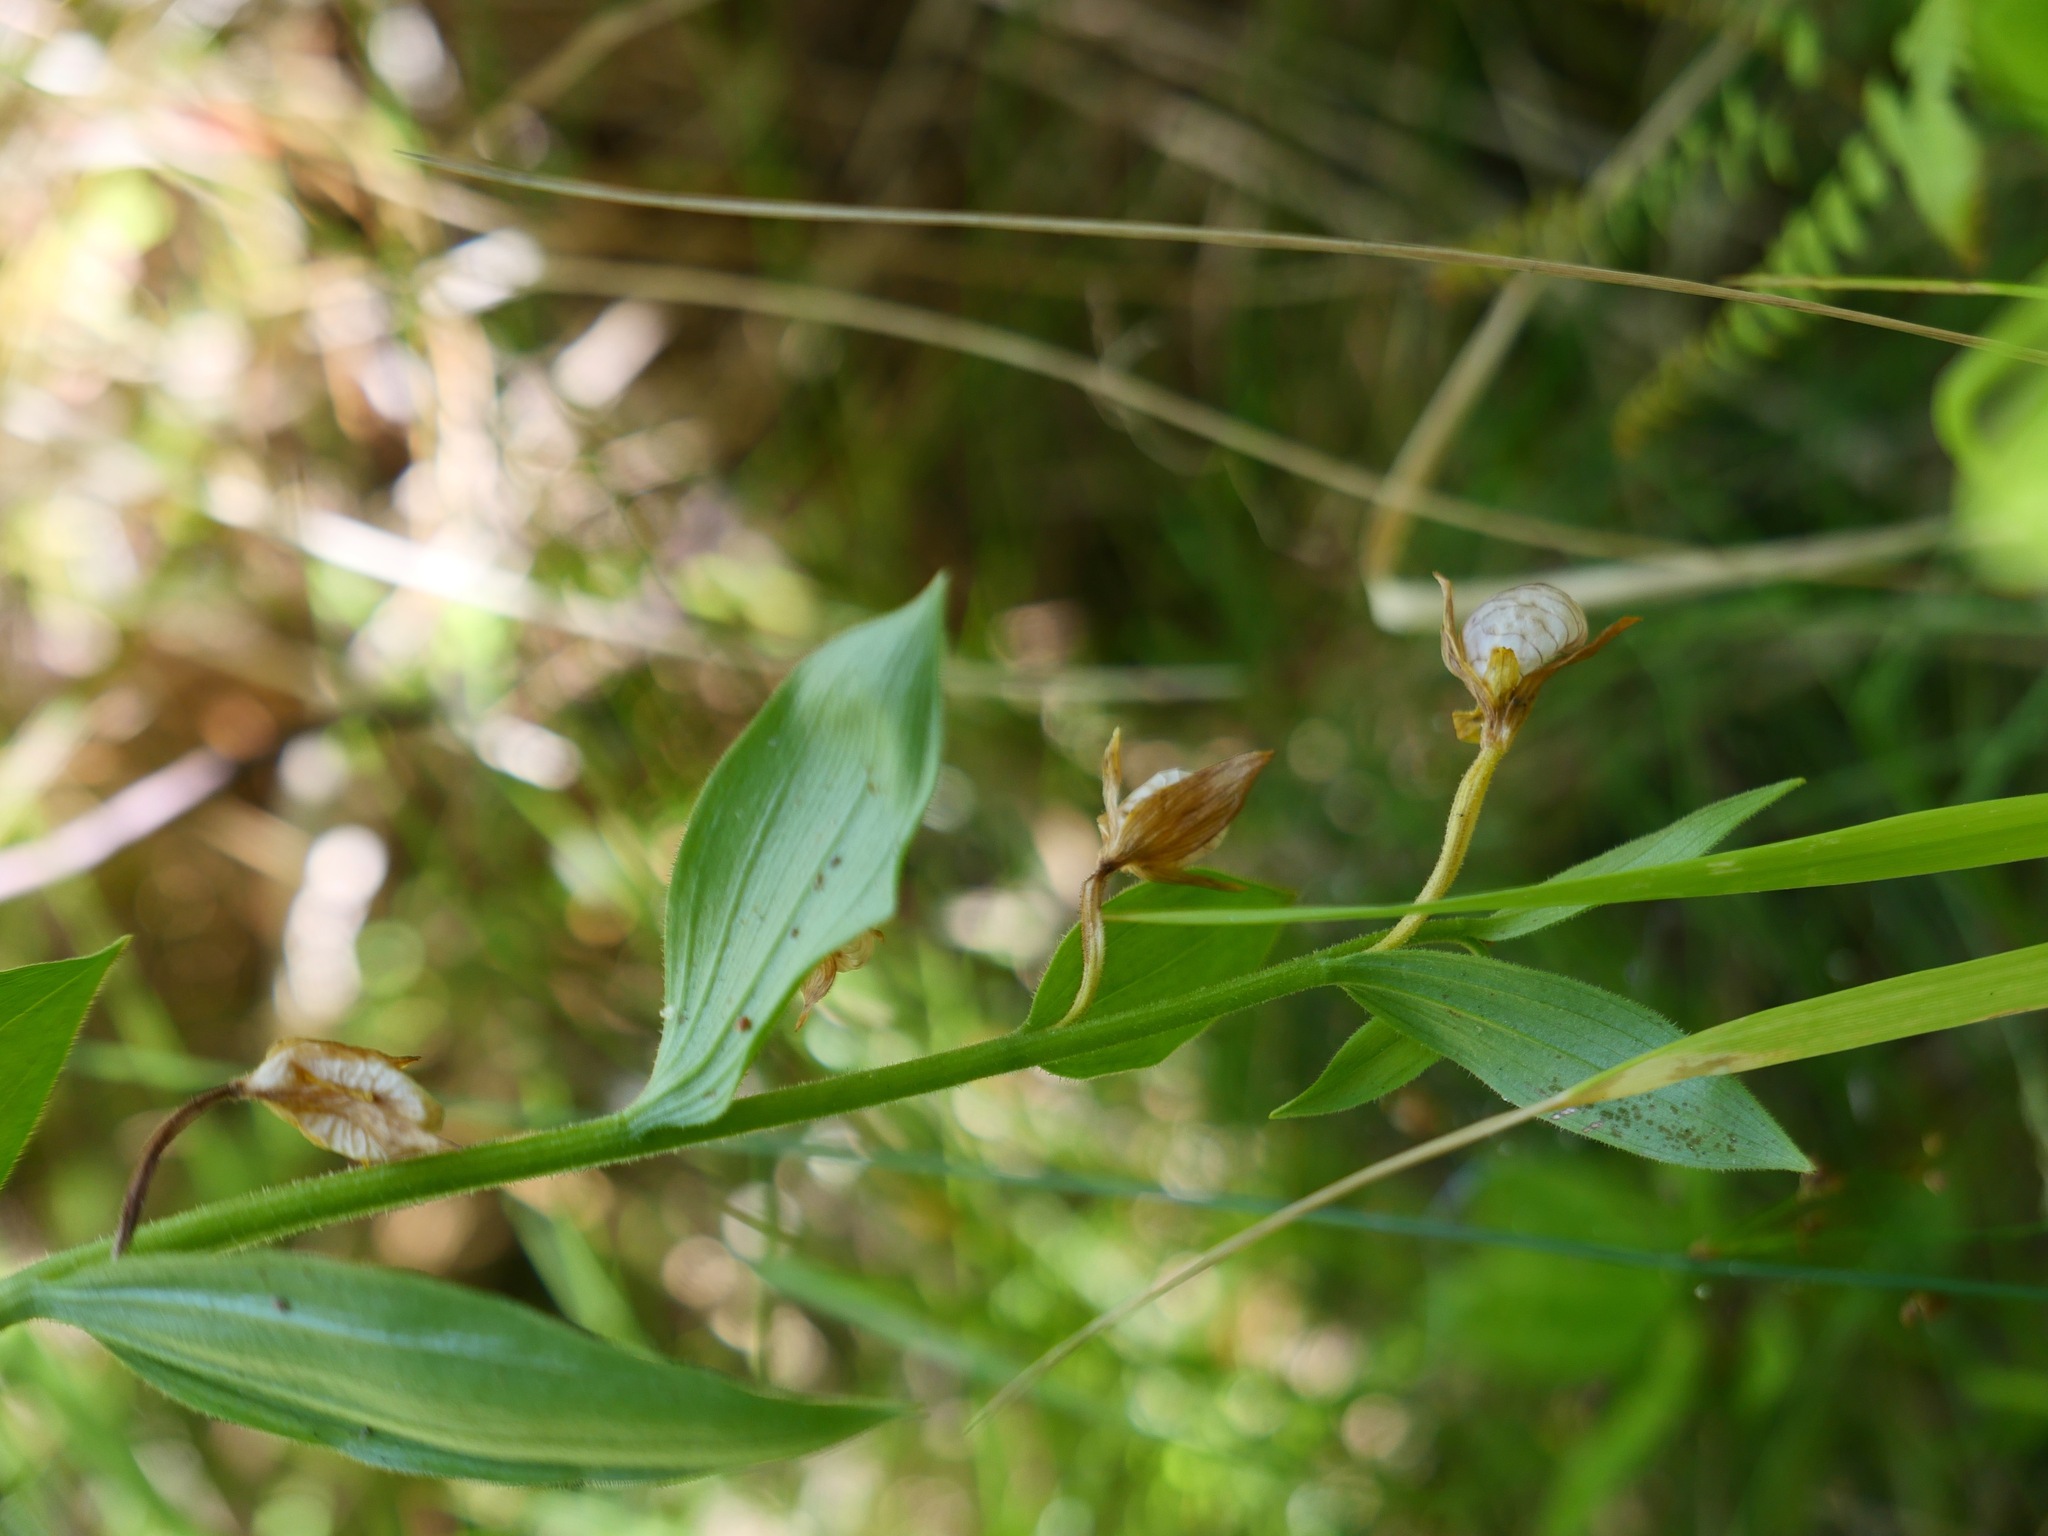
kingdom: Plantae
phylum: Tracheophyta
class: Liliopsida
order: Asparagales
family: Orchidaceae
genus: Cypripedium
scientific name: Cypripedium californicum
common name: California lady's slipper
